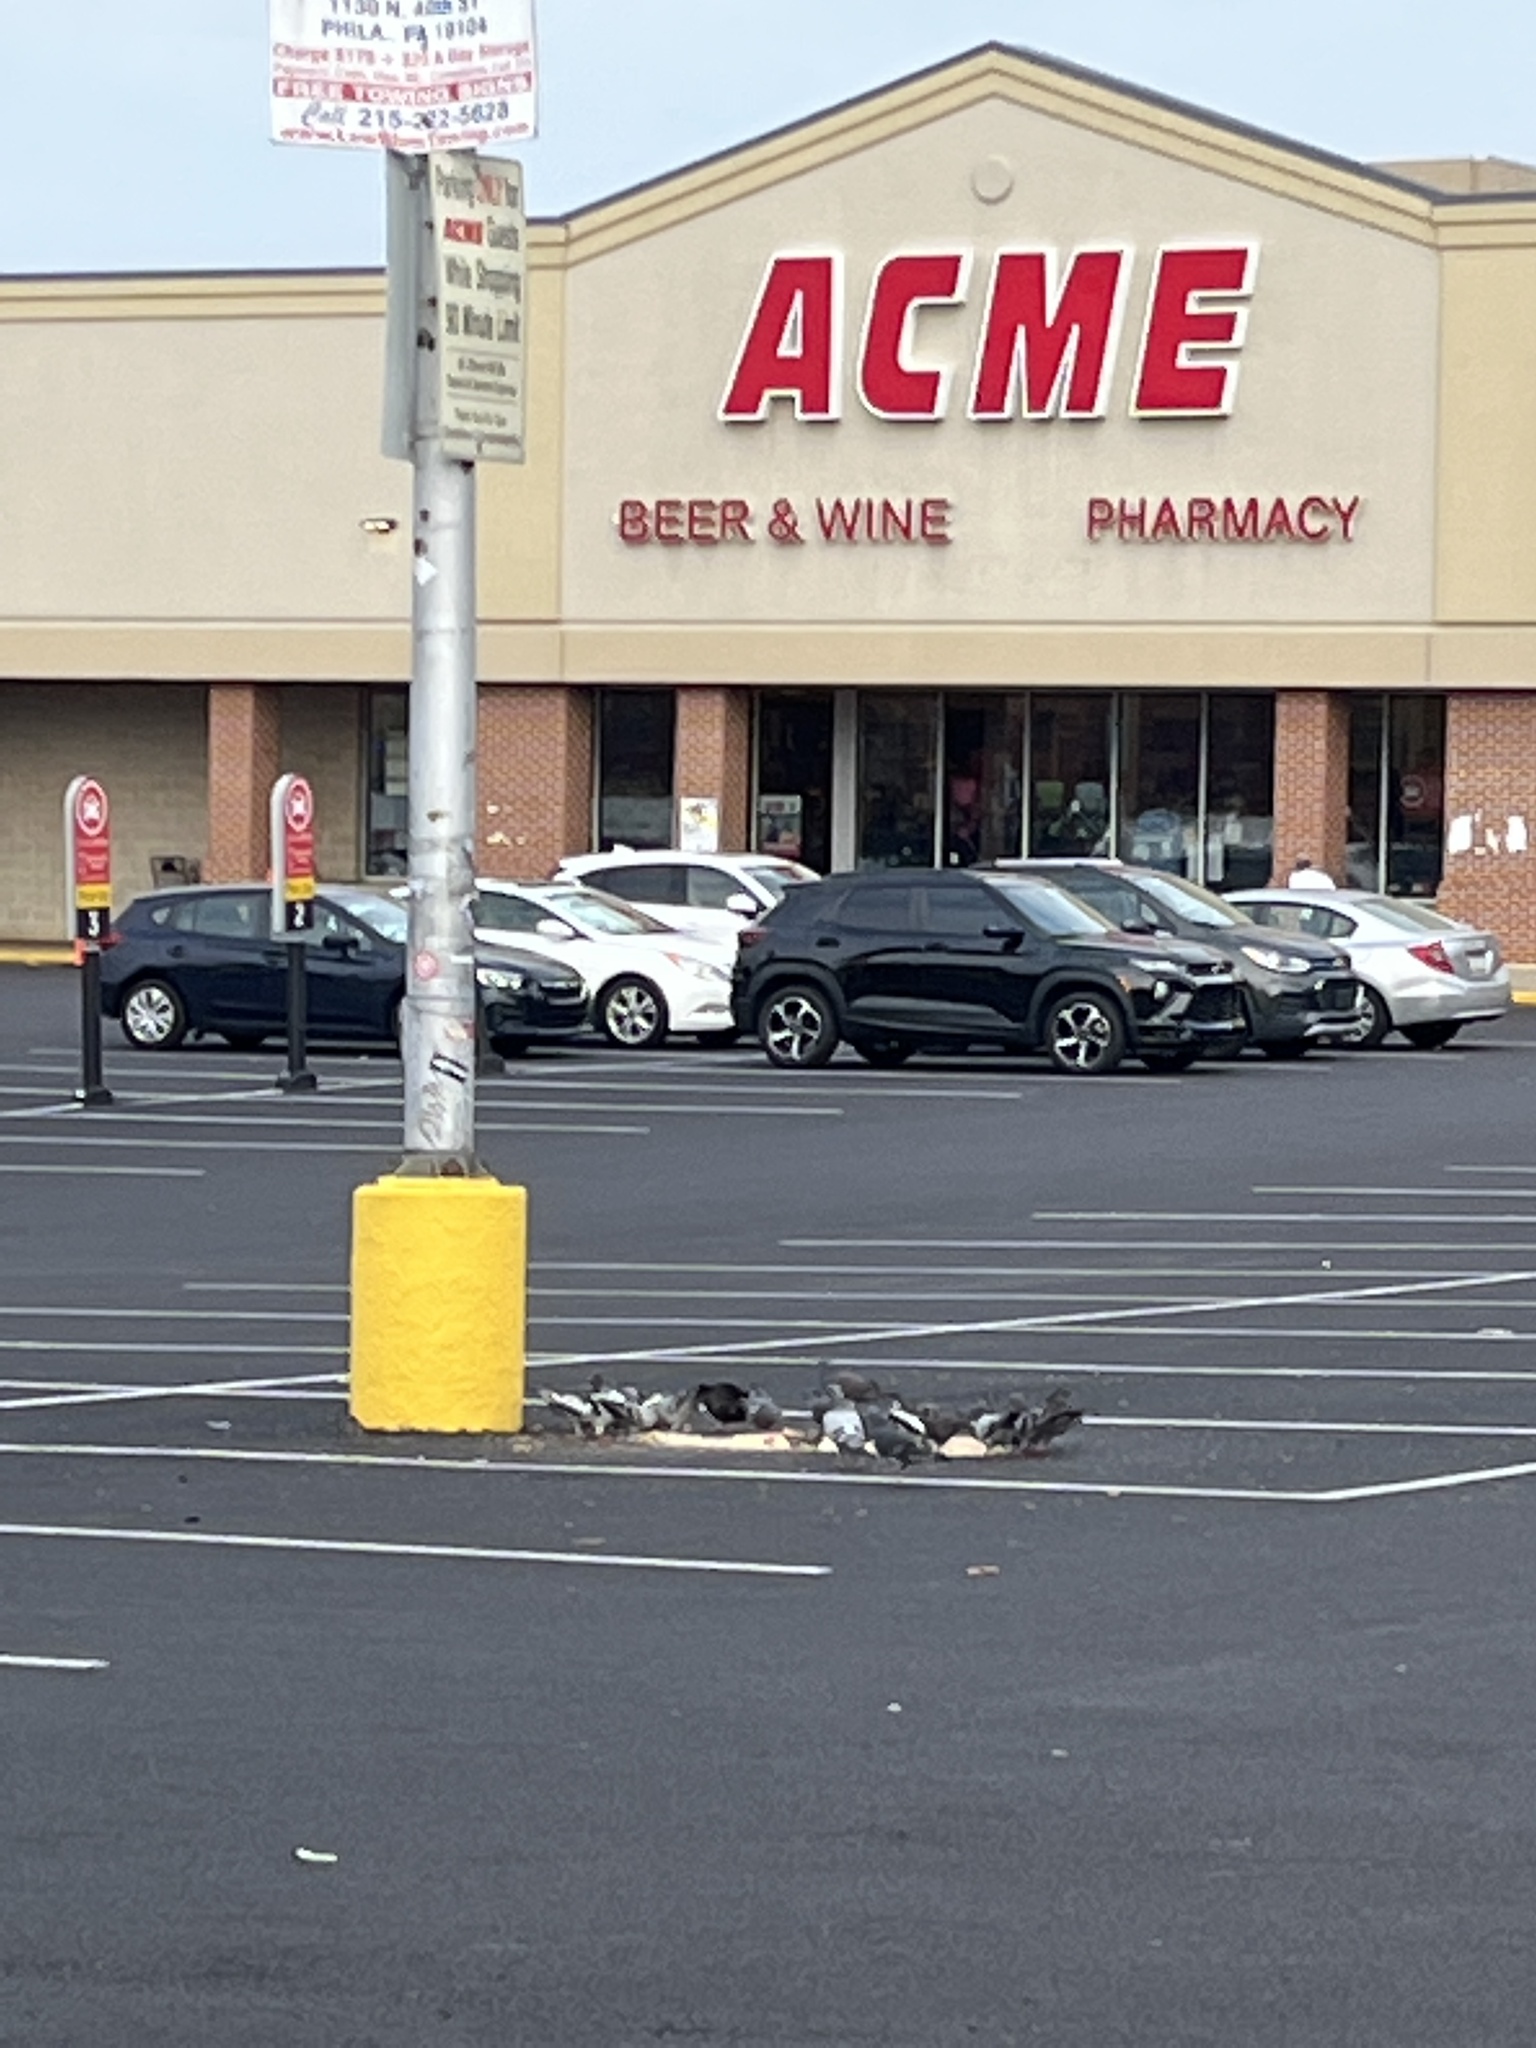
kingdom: Animalia
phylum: Chordata
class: Aves
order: Columbiformes
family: Columbidae
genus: Columba
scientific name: Columba livia
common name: Rock pigeon
